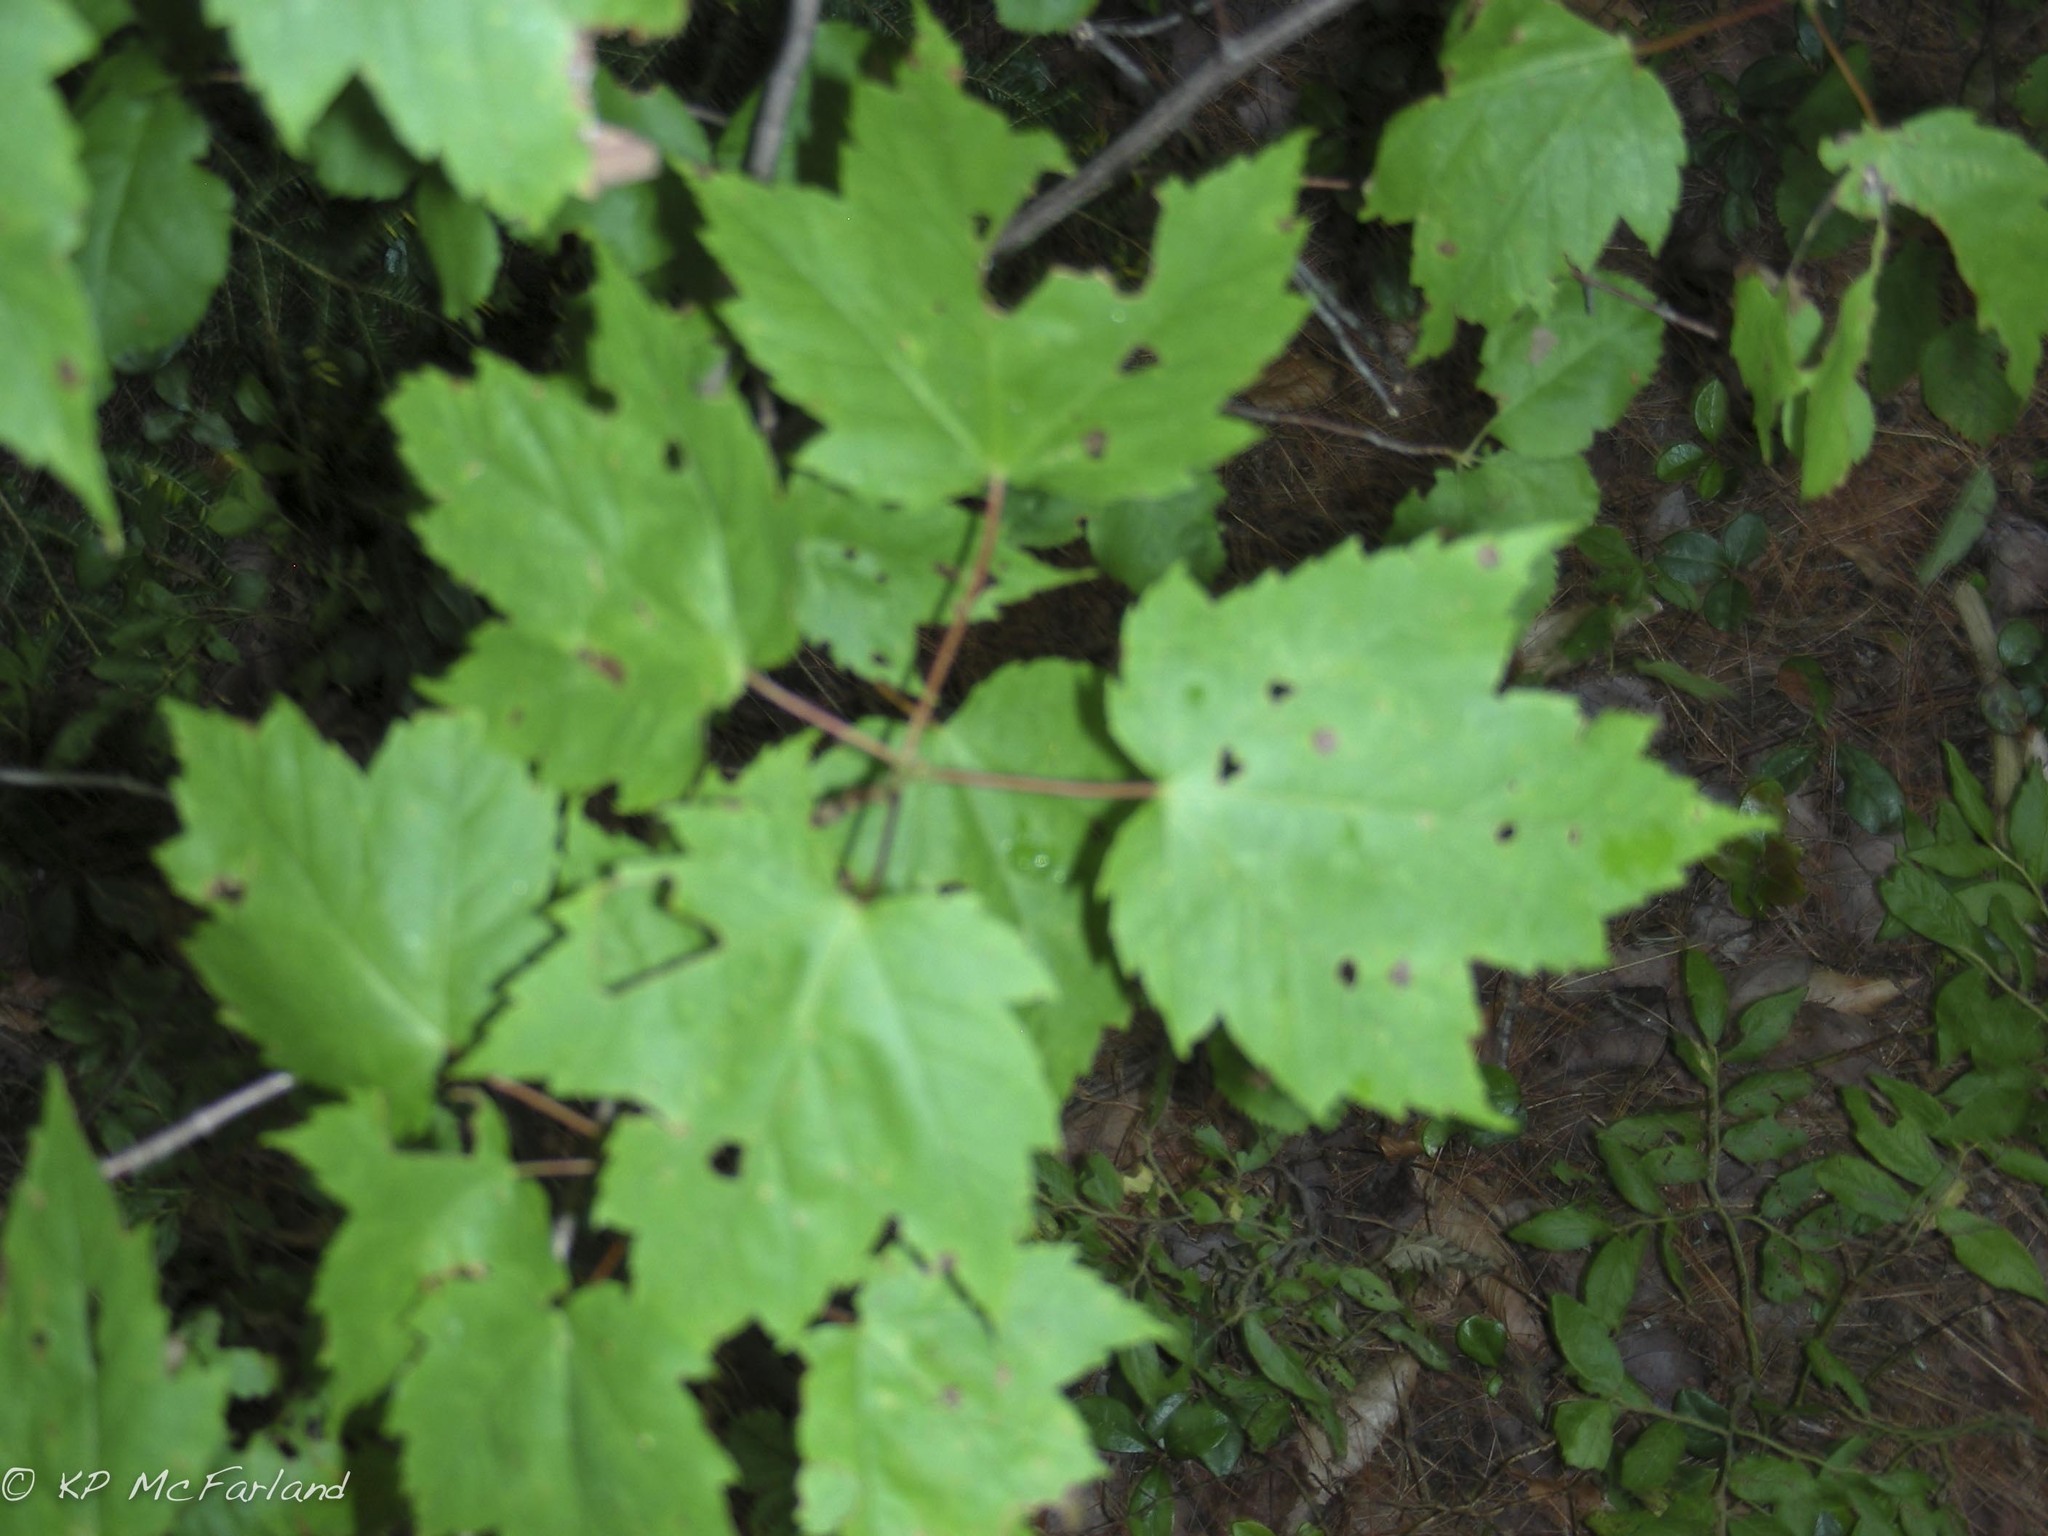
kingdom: Plantae
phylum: Tracheophyta
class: Magnoliopsida
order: Sapindales
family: Sapindaceae
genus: Acer
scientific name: Acer rubrum
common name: Red maple
